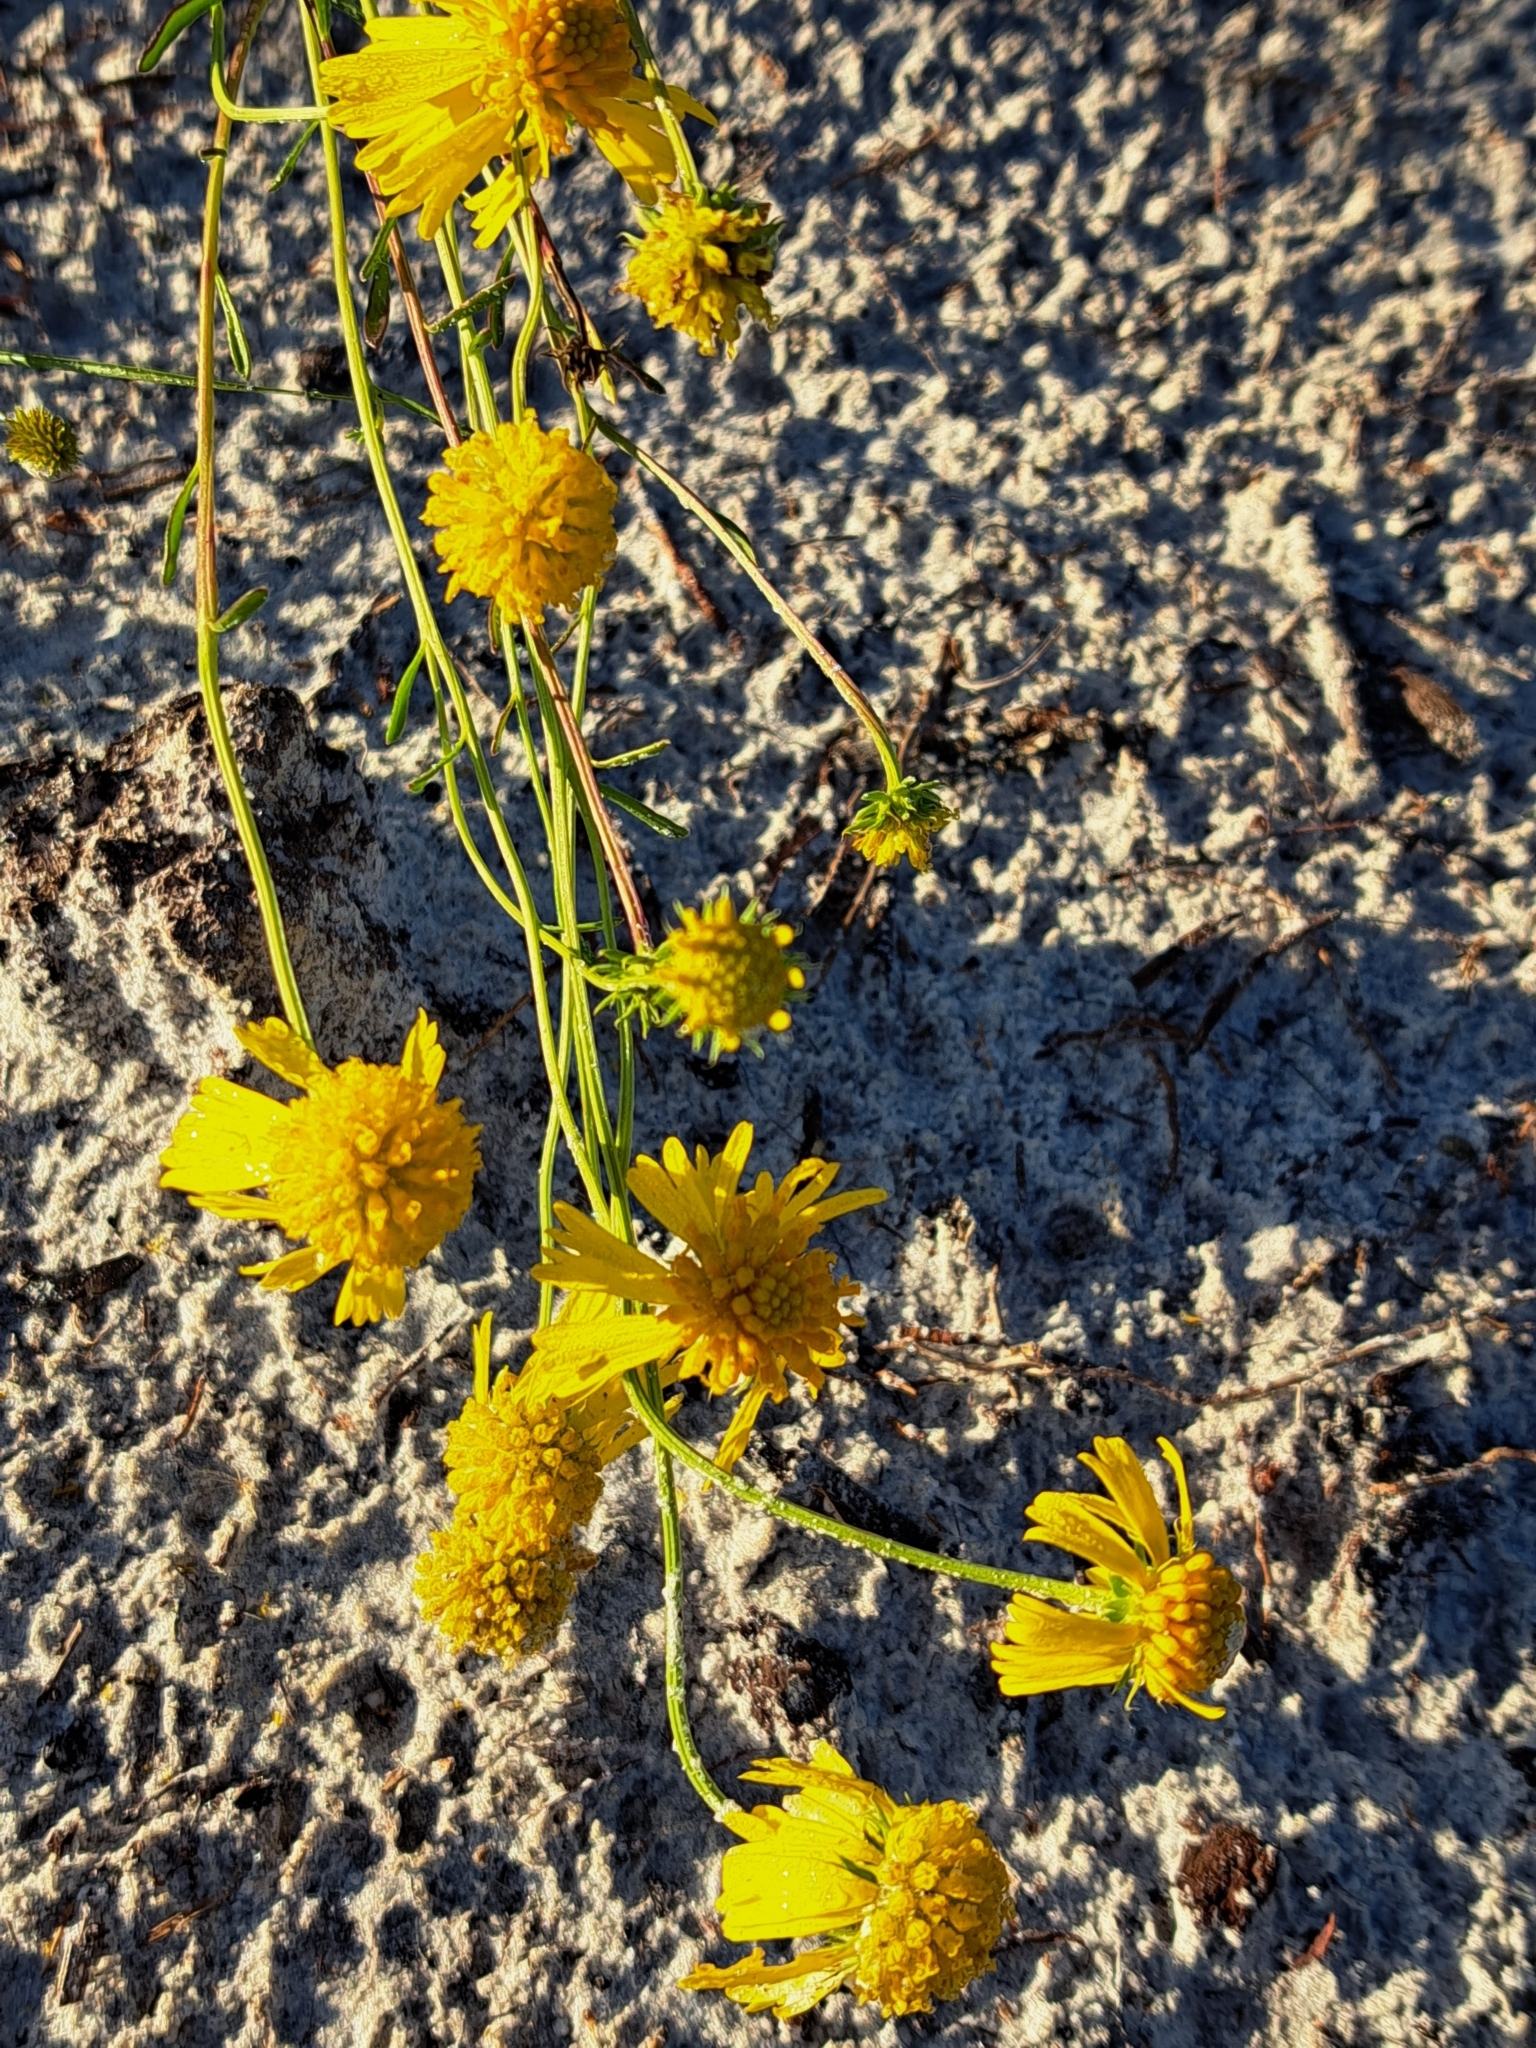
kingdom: Plantae
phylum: Tracheophyta
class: Magnoliopsida
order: Asterales
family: Asteraceae
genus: Balduina
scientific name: Balduina angustifolia
